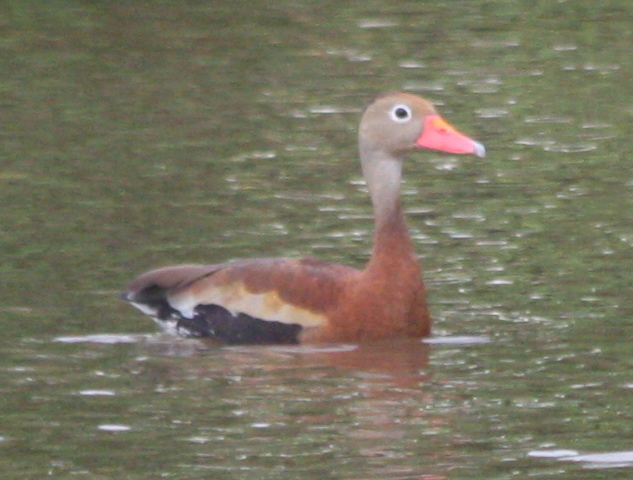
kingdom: Animalia
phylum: Chordata
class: Aves
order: Anseriformes
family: Anatidae
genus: Dendrocygna
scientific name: Dendrocygna autumnalis
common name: Black-bellied whistling duck
